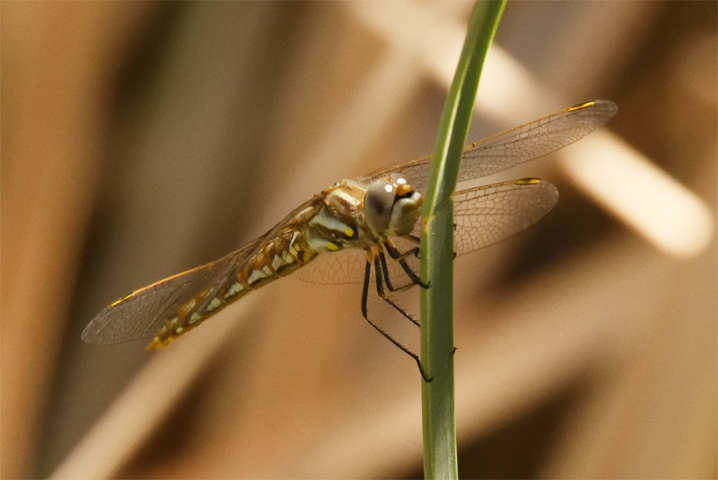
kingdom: Animalia
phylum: Arthropoda
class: Insecta
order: Odonata
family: Libellulidae
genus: Sympetrum
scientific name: Sympetrum corruptum
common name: Variegated meadowhawk
